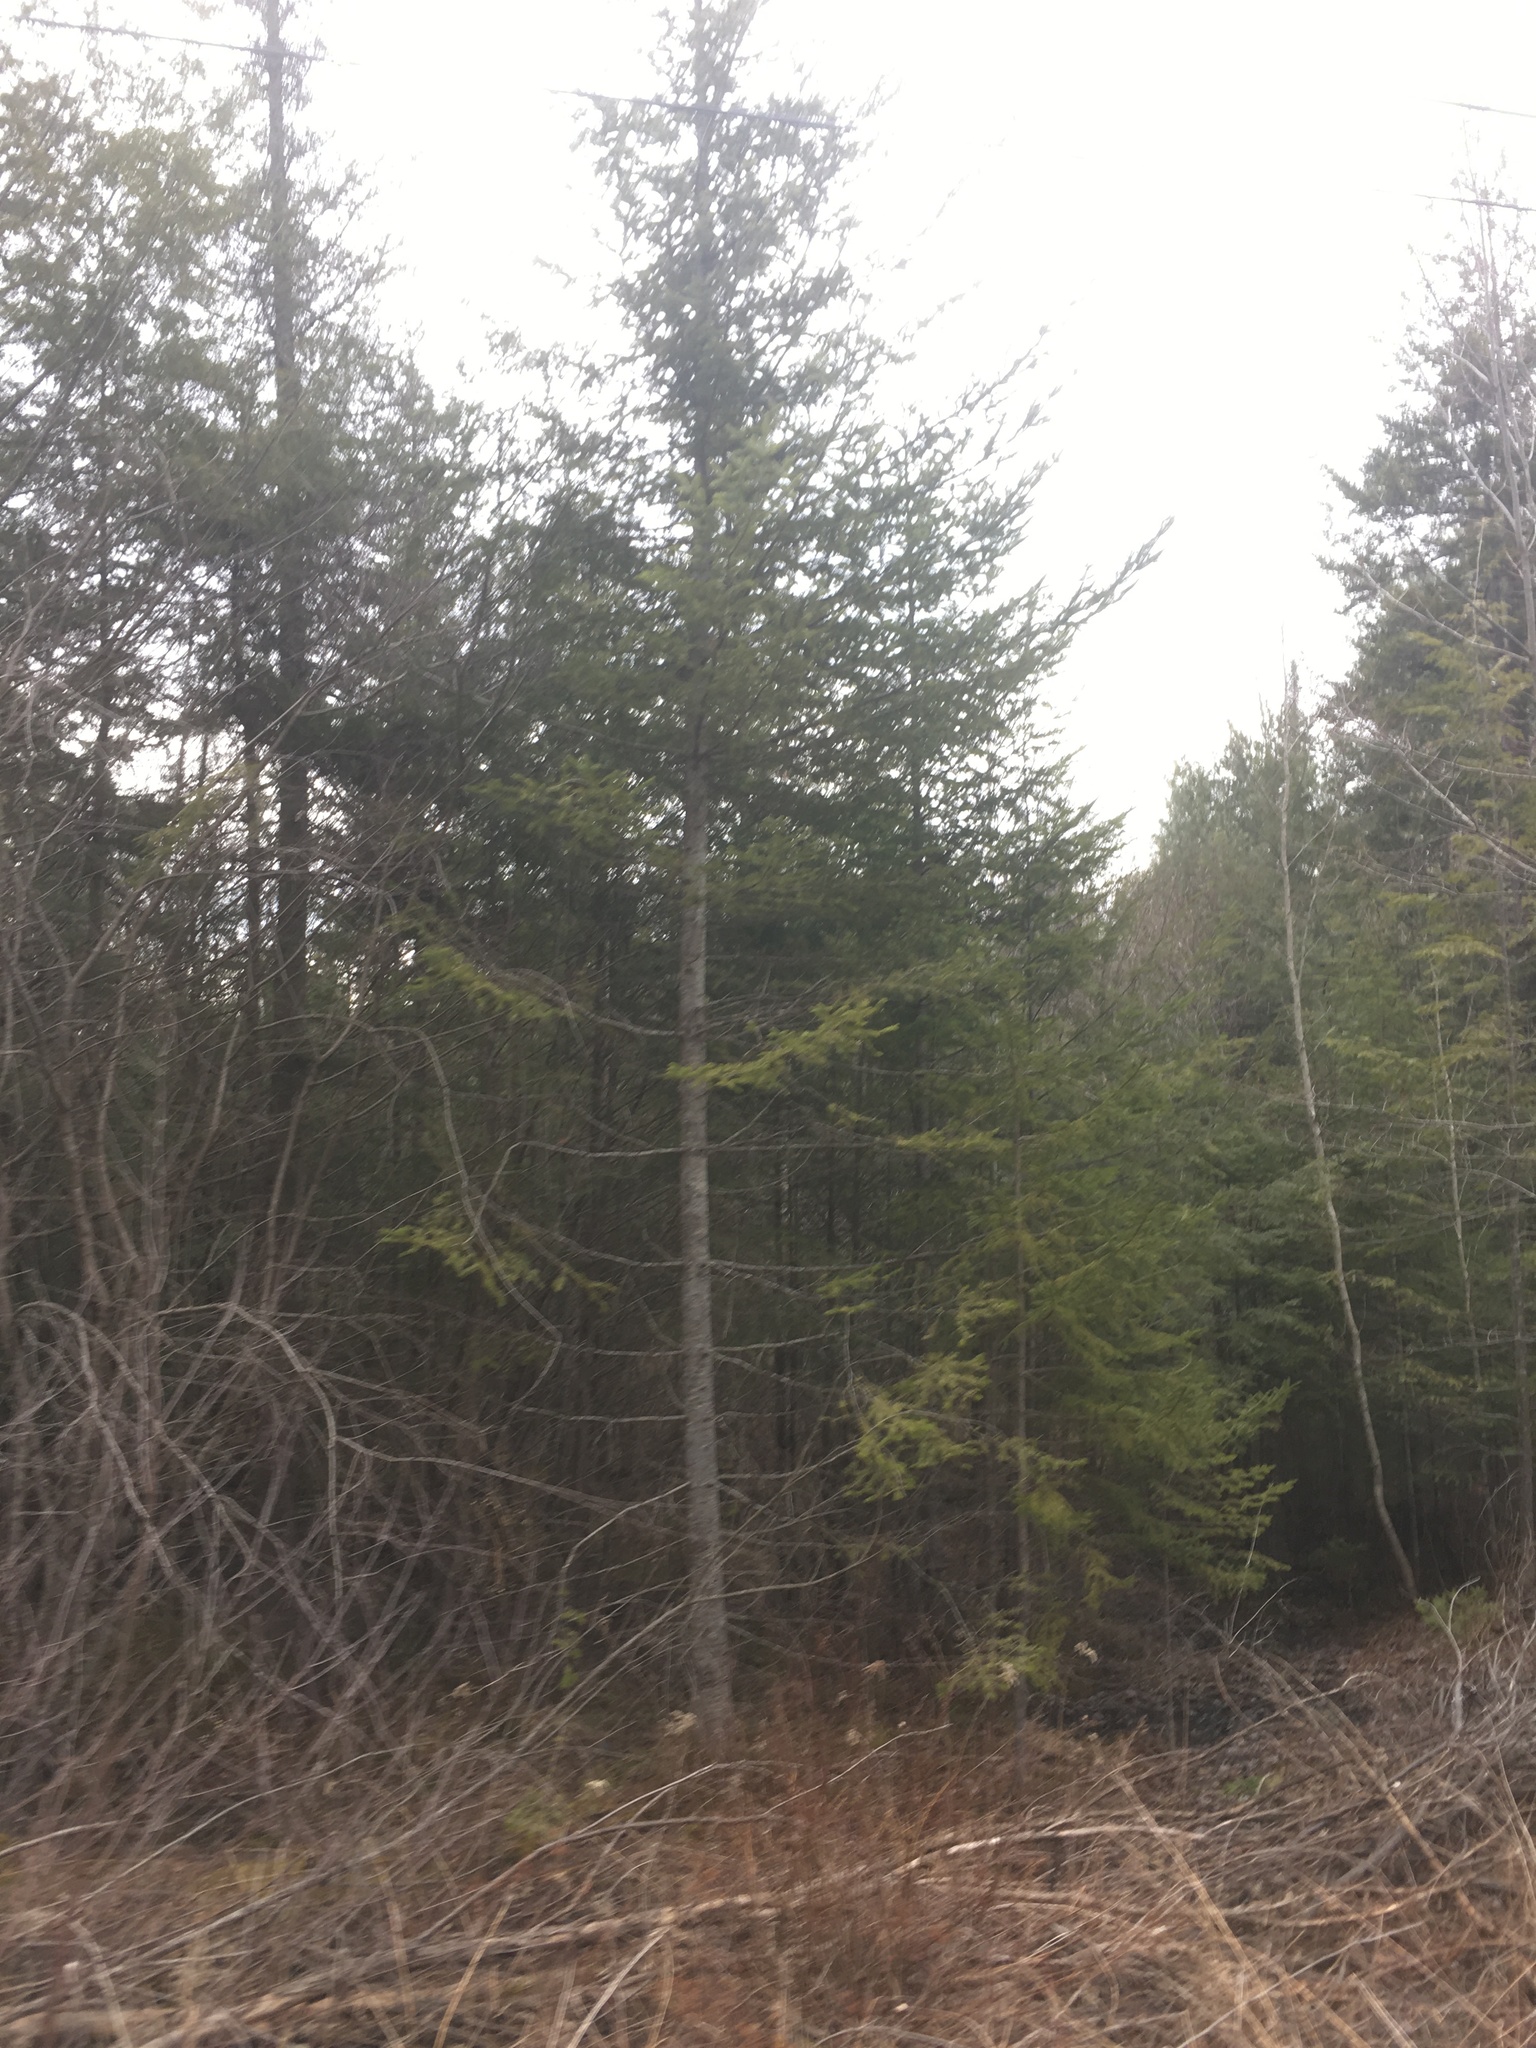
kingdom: Plantae
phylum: Tracheophyta
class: Pinopsida
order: Pinales
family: Pinaceae
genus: Abies
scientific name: Abies balsamea
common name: Balsam fir
